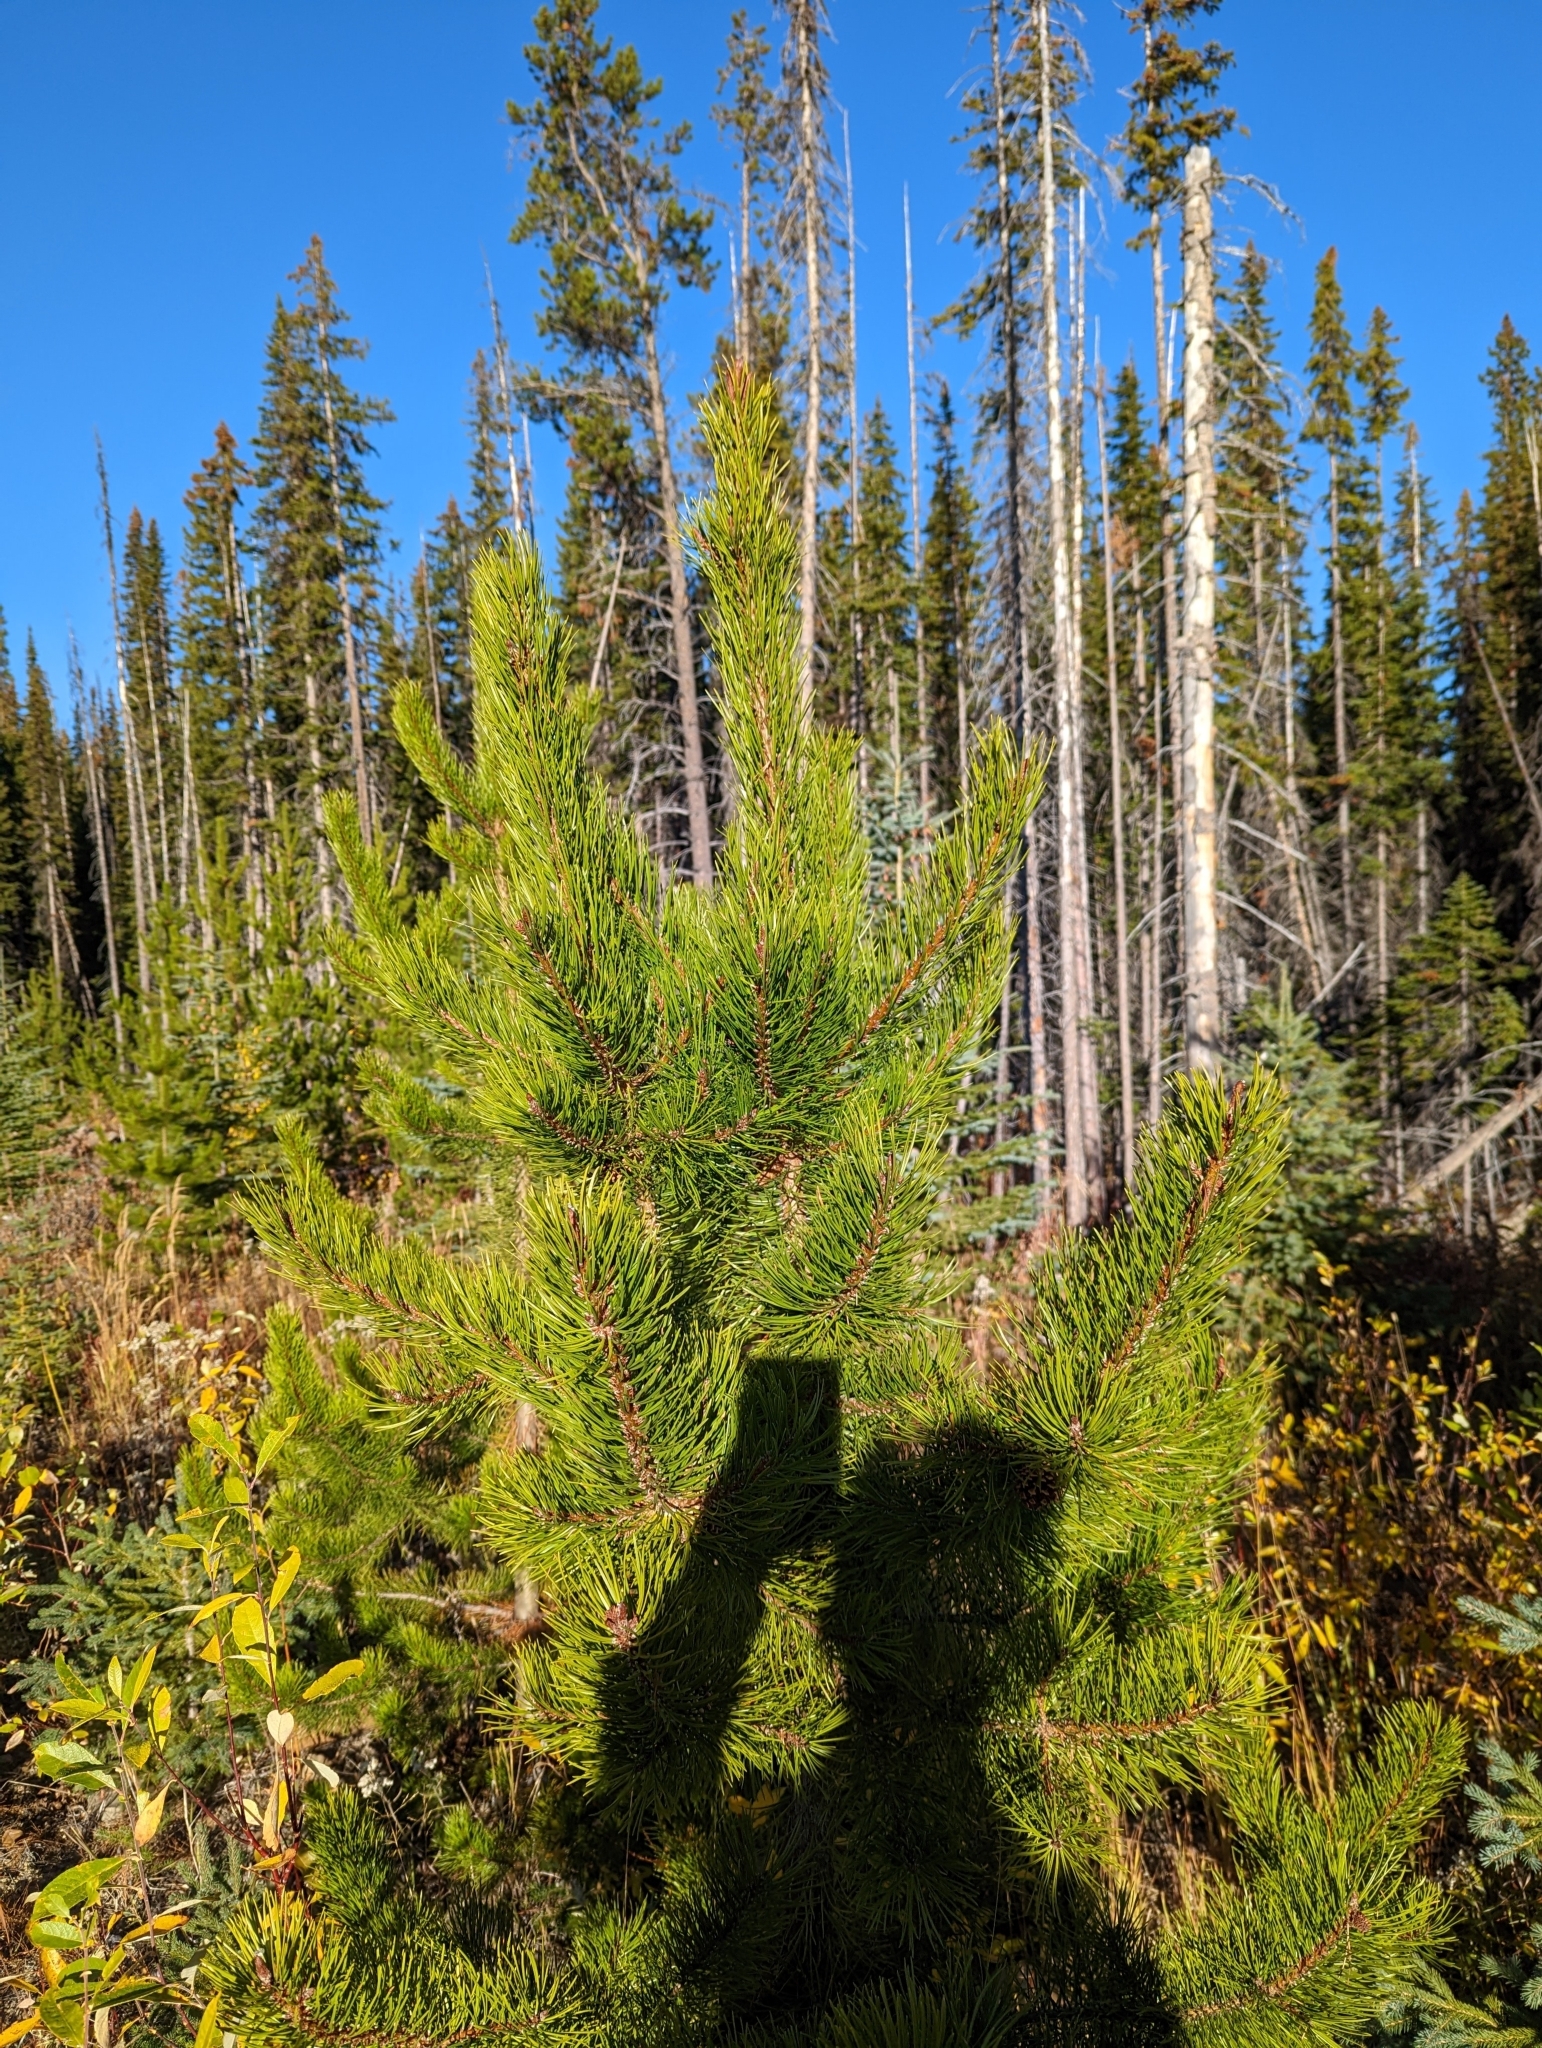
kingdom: Plantae
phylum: Tracheophyta
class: Pinopsida
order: Pinales
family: Pinaceae
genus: Pinus
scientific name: Pinus contorta
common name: Lodgepole pine
